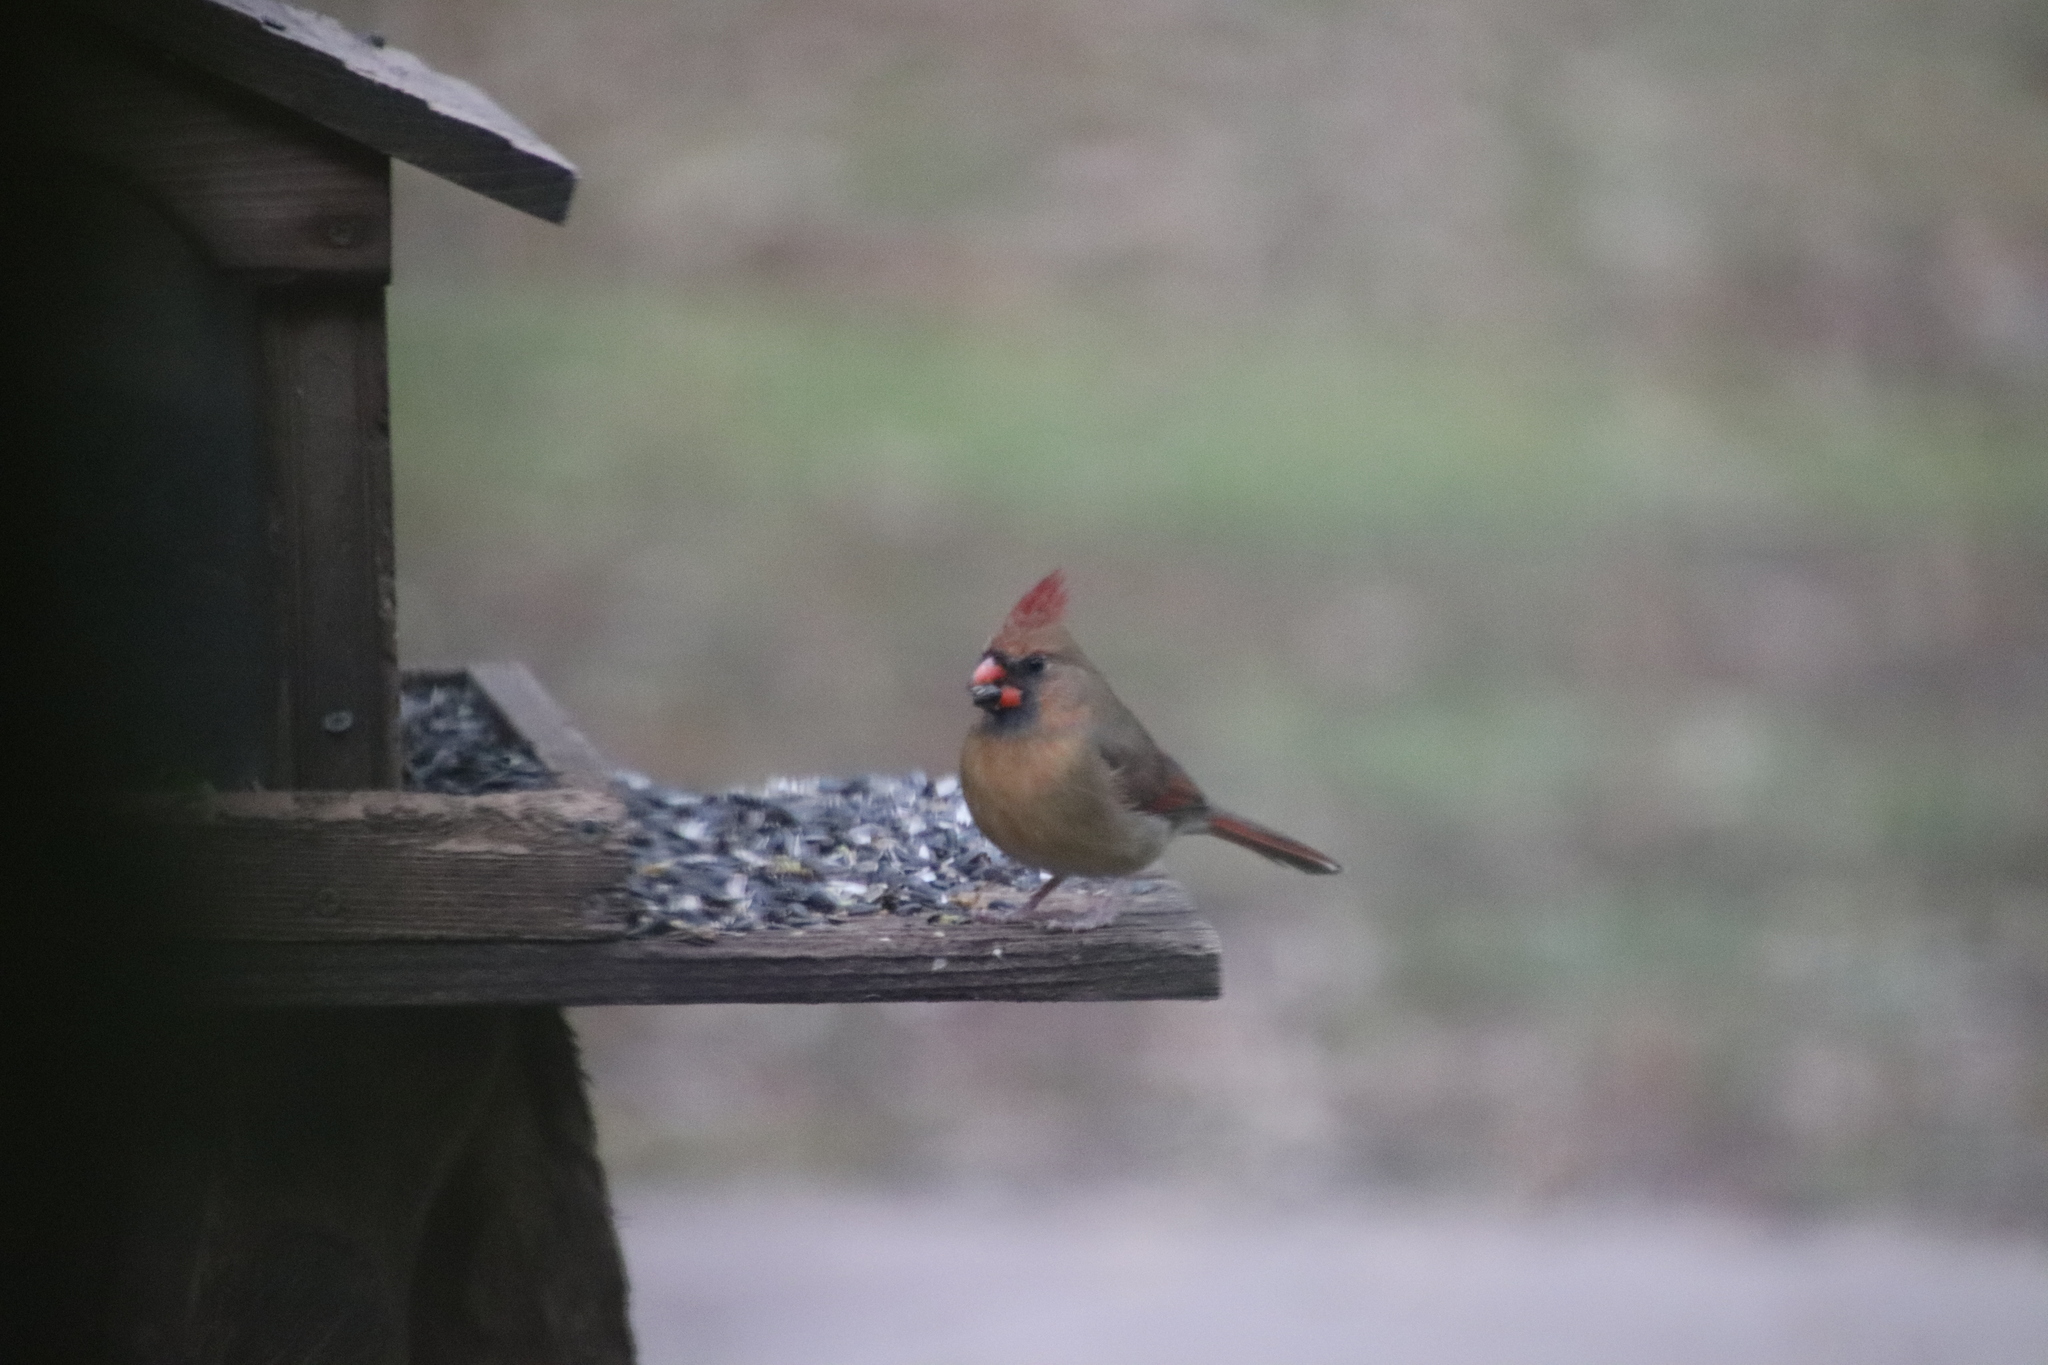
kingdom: Animalia
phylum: Chordata
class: Aves
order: Passeriformes
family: Cardinalidae
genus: Cardinalis
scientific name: Cardinalis cardinalis
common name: Northern cardinal
